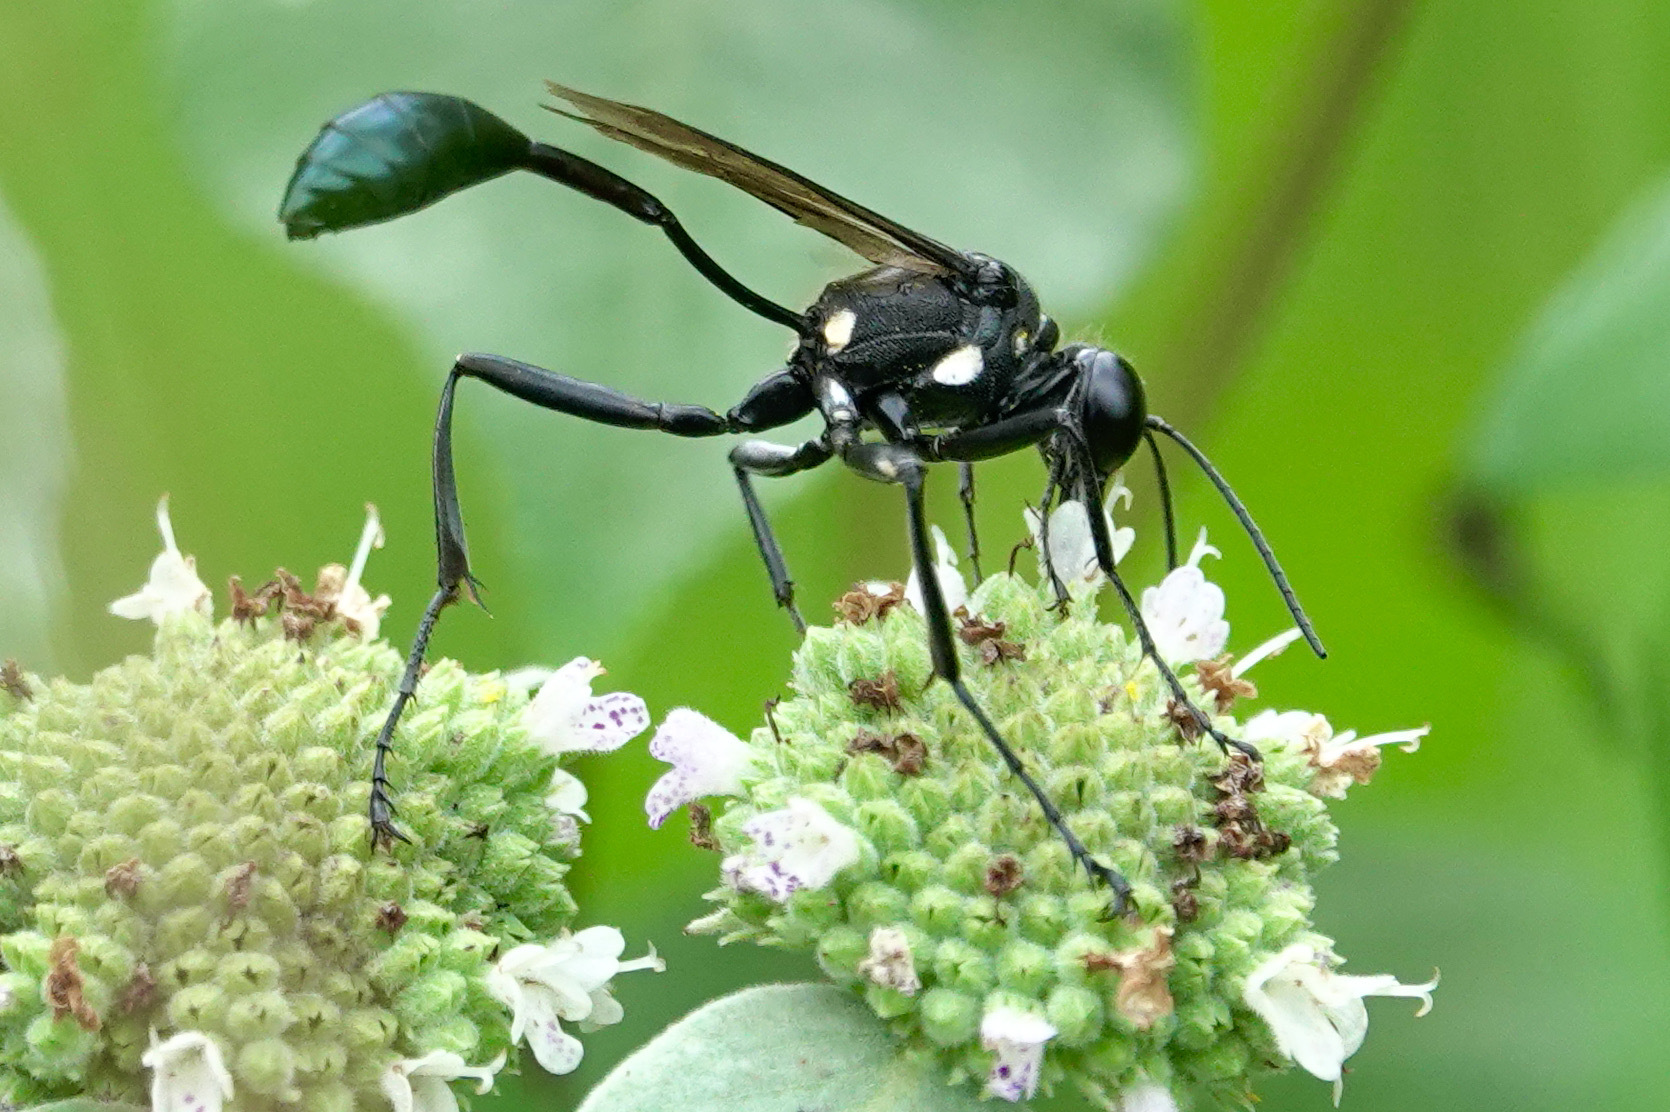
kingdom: Animalia
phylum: Arthropoda
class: Insecta
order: Hymenoptera
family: Sphecidae
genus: Eremnophila
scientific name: Eremnophila aureonotata
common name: Gold-marked thread-waisted wasp
